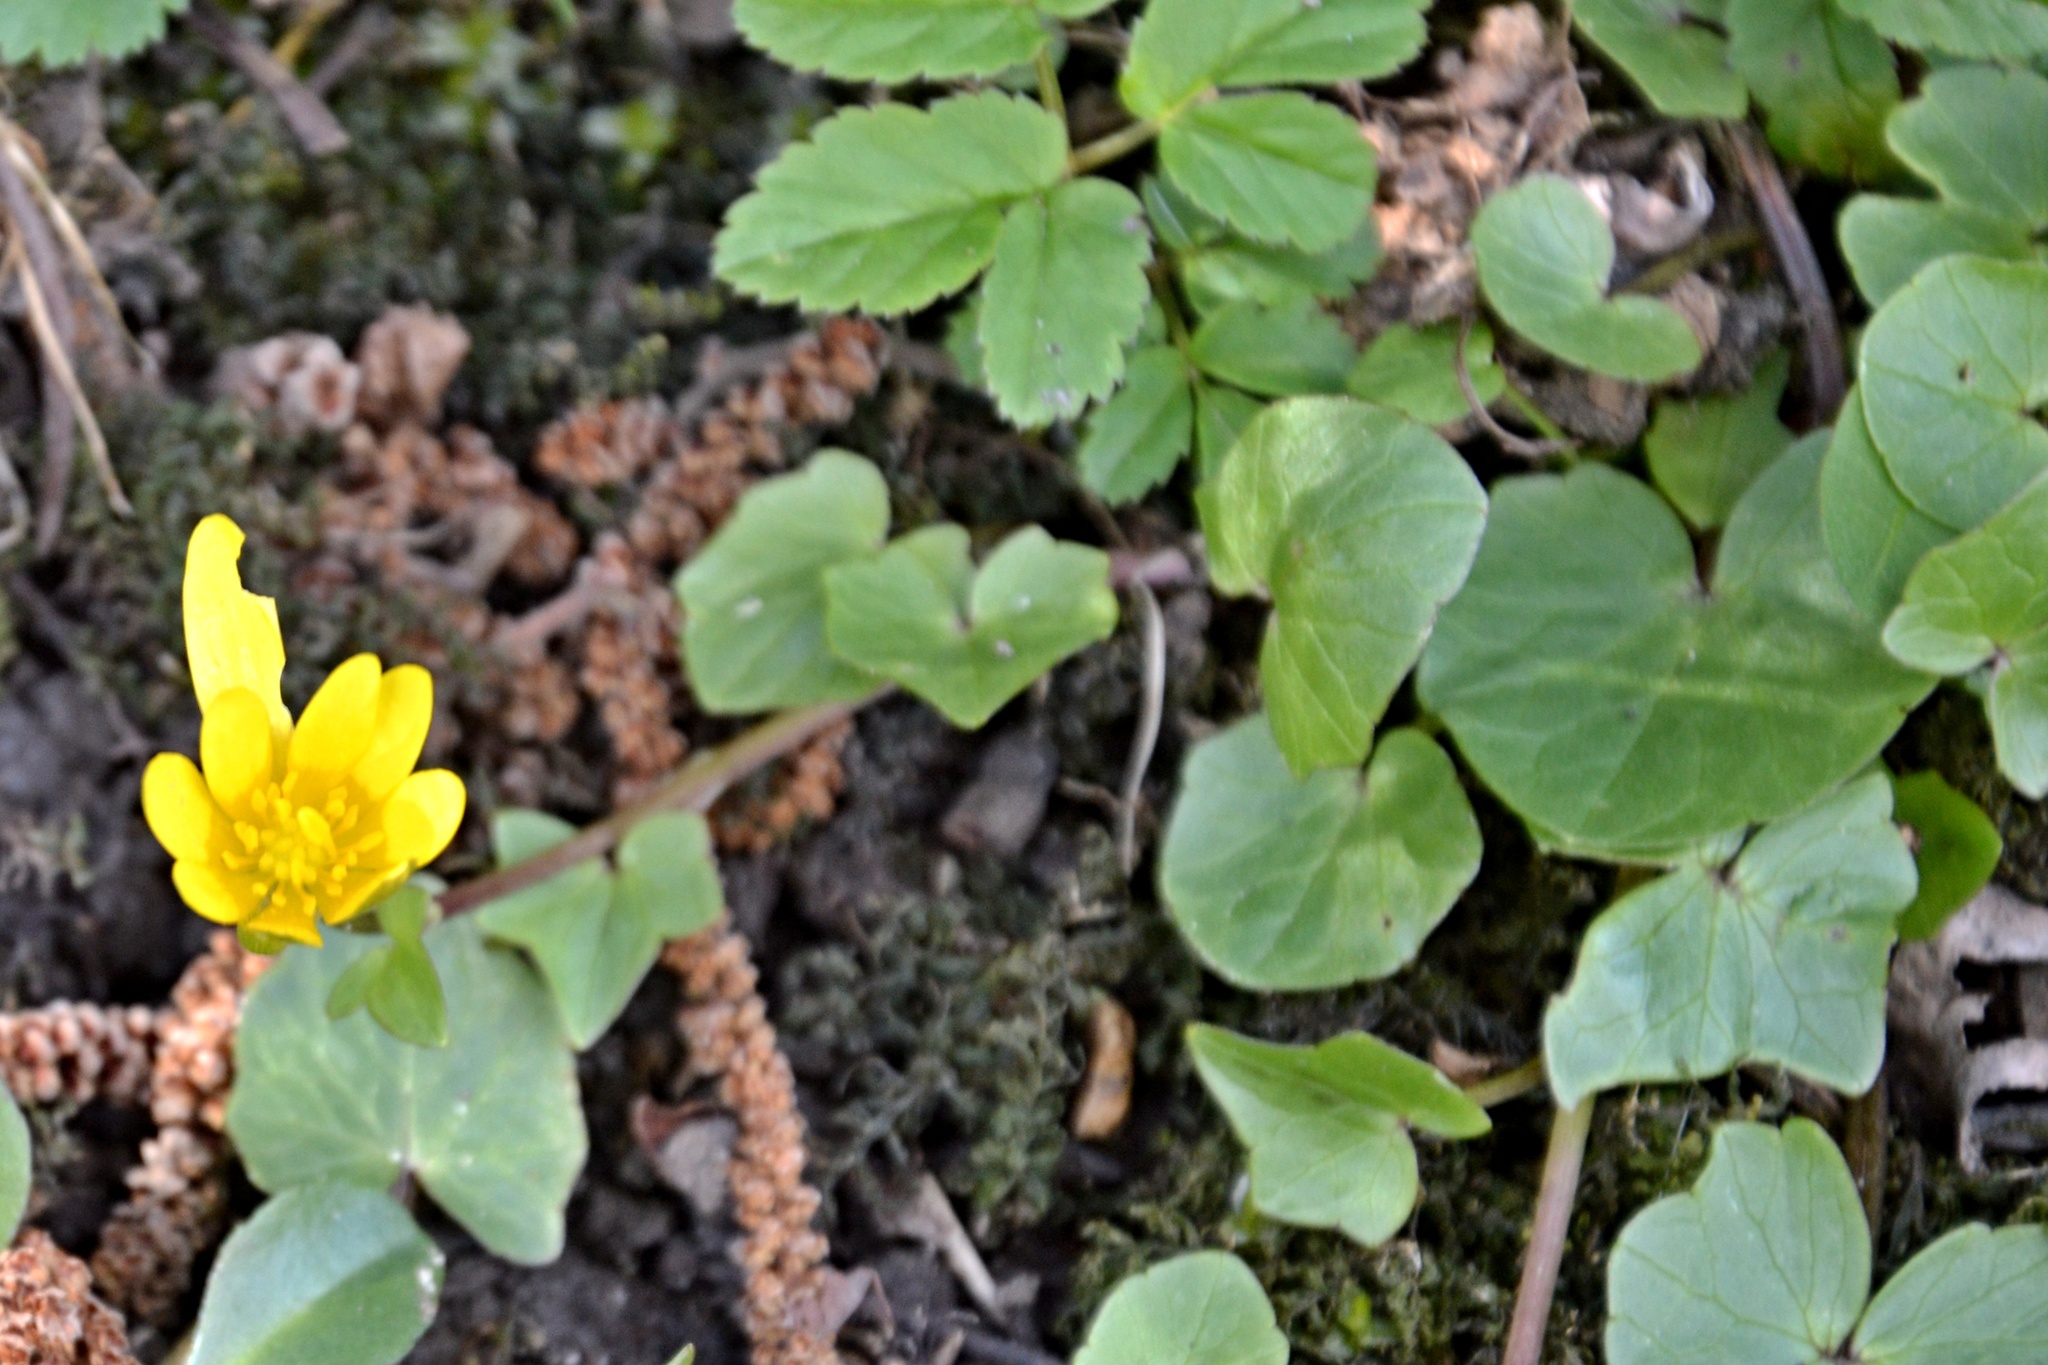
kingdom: Plantae
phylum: Tracheophyta
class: Magnoliopsida
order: Ranunculales
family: Ranunculaceae
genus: Ficaria
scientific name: Ficaria verna
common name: Lesser celandine
